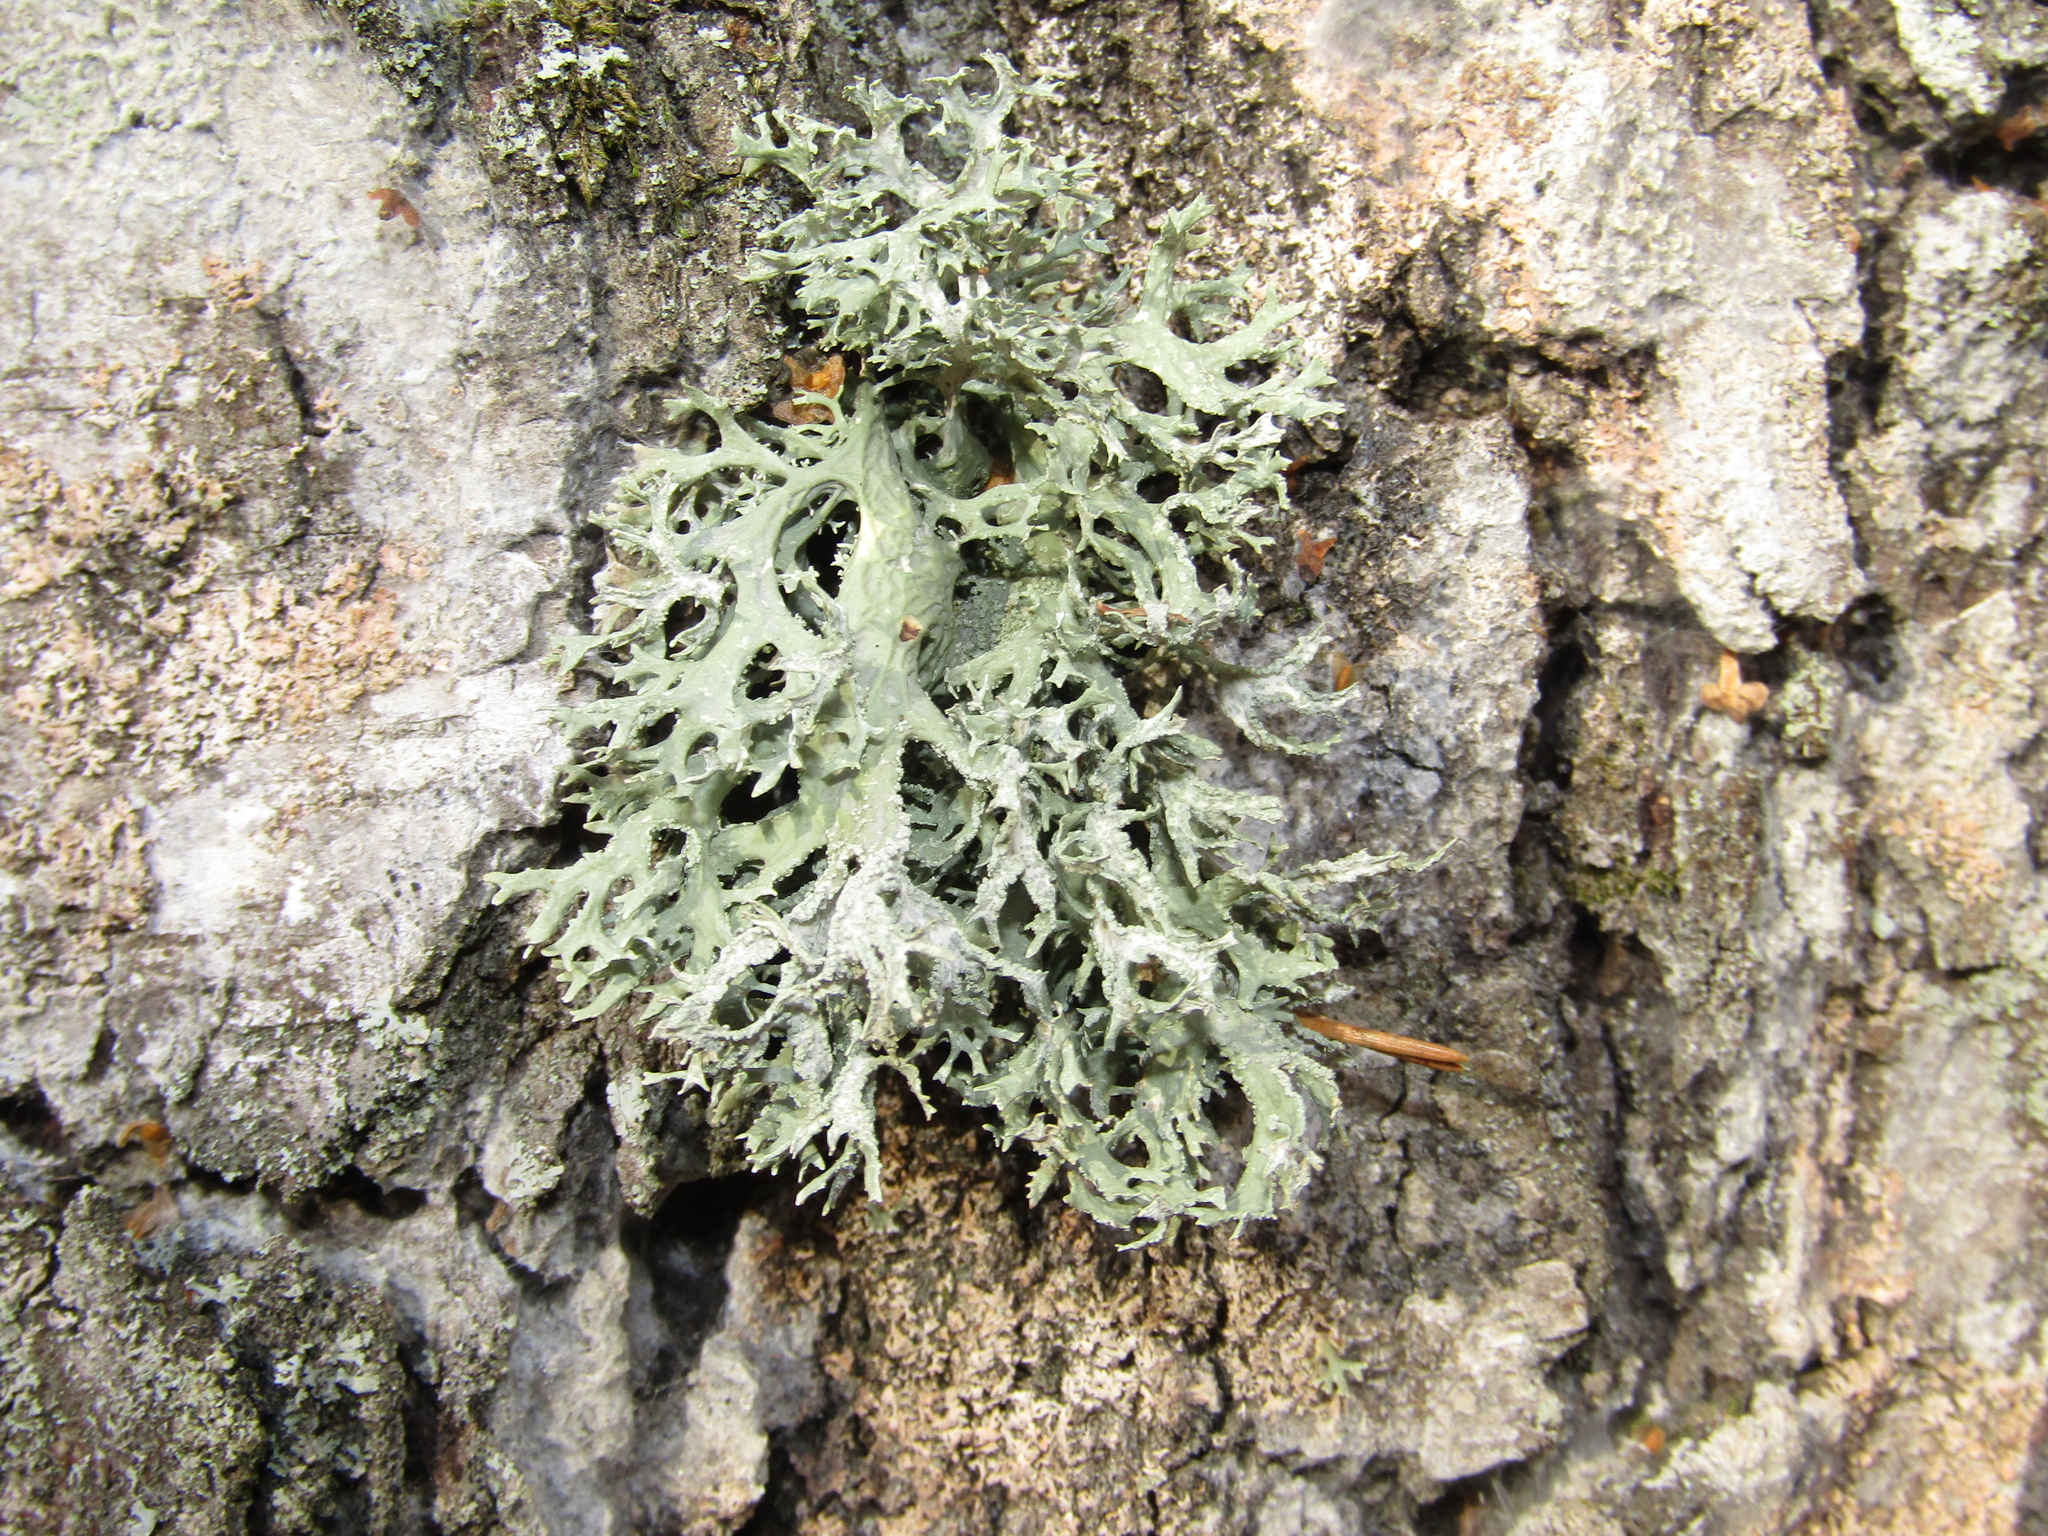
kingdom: Fungi
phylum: Ascomycota
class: Lecanoromycetes
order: Lecanorales
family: Parmeliaceae
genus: Evernia
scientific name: Evernia prunastri
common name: Oak moss
